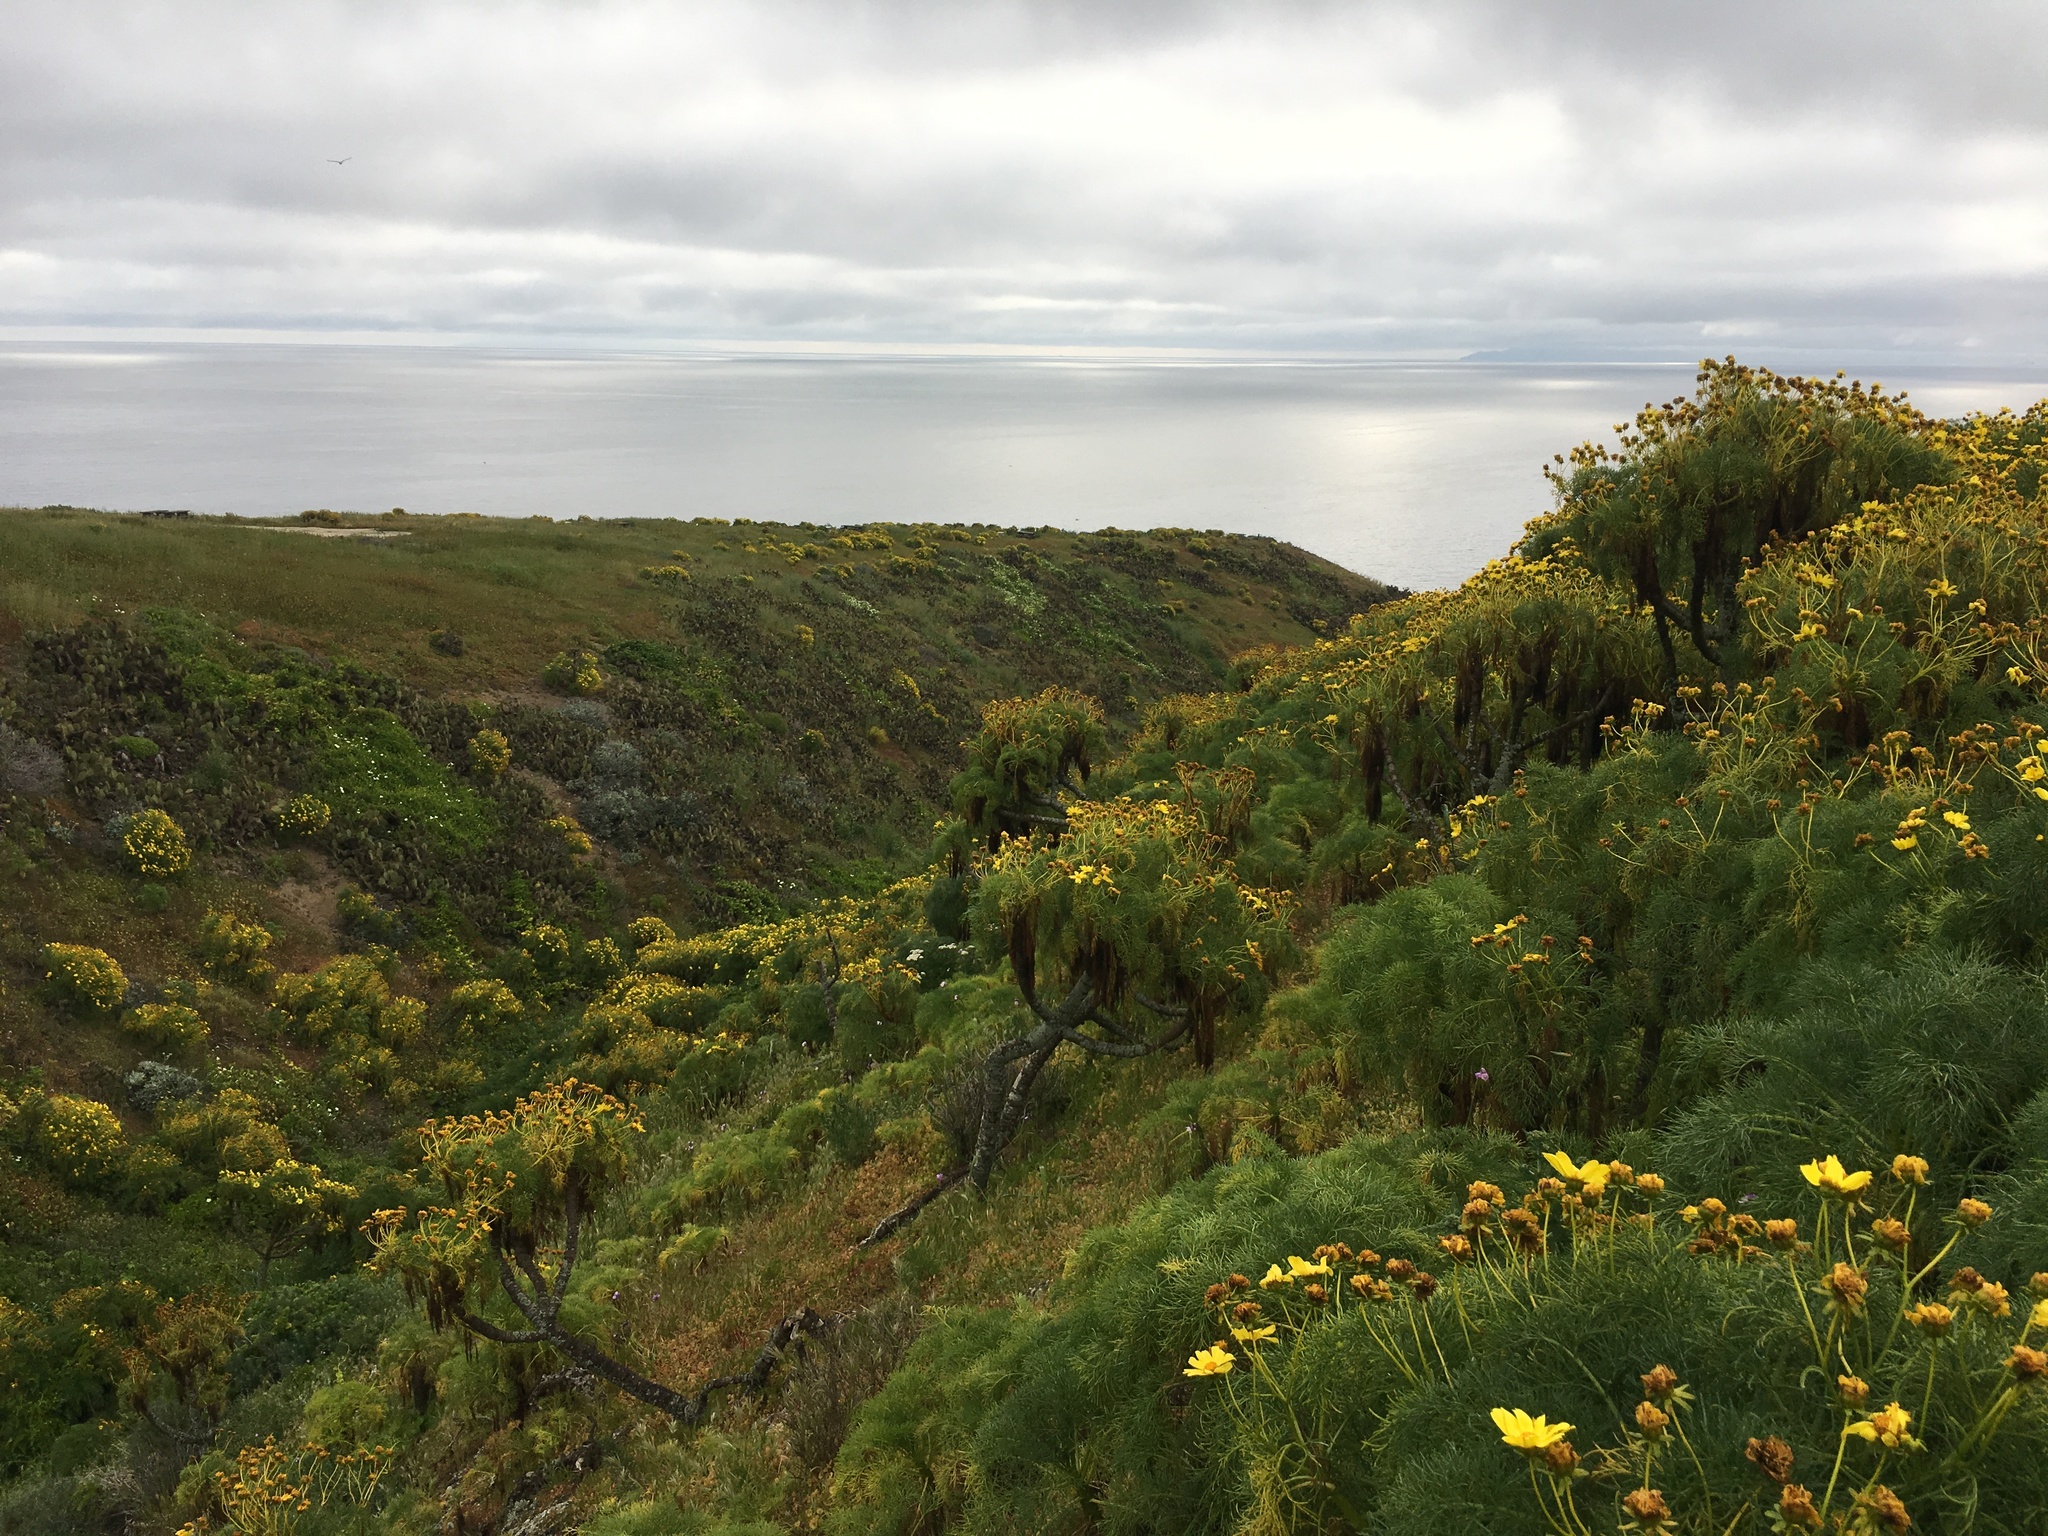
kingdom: Plantae
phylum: Tracheophyta
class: Magnoliopsida
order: Asterales
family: Asteraceae
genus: Coreopsis
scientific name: Coreopsis gigantea
